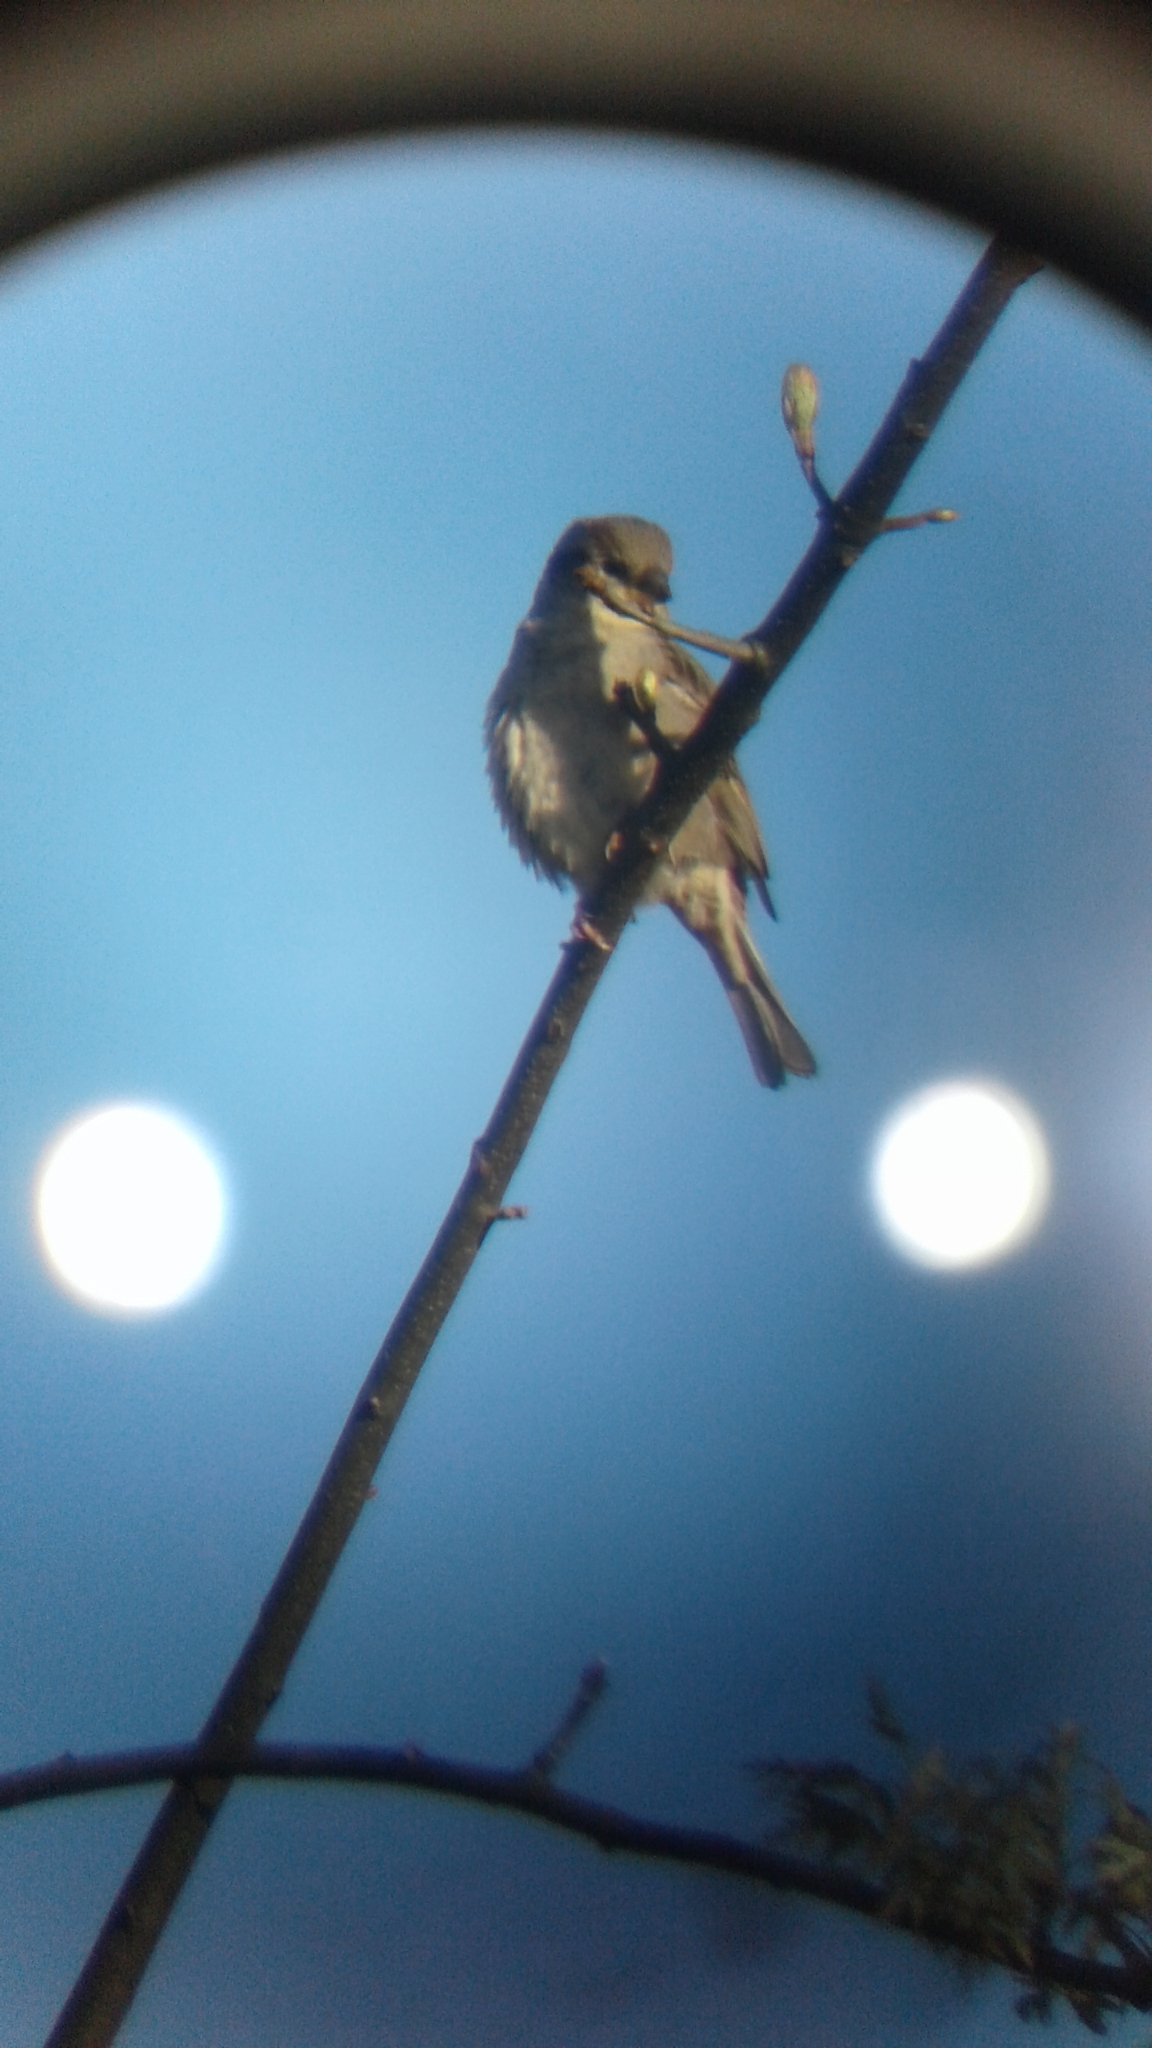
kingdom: Animalia
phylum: Chordata
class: Aves
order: Passeriformes
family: Passeridae
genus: Passer
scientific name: Passer domesticus
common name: House sparrow
